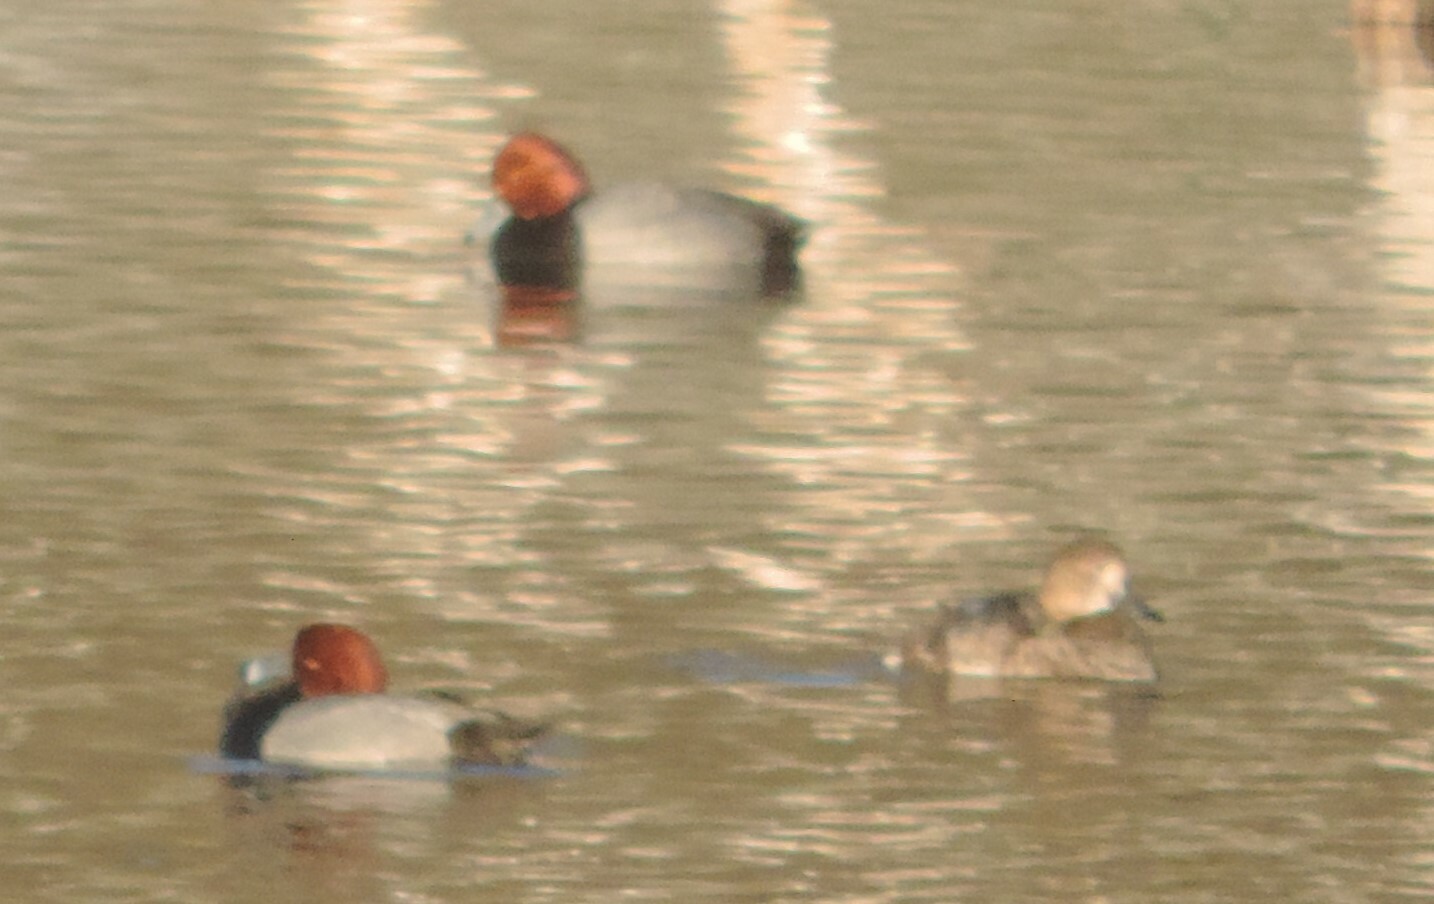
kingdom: Animalia
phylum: Chordata
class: Aves
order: Anseriformes
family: Anatidae
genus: Aythya
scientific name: Aythya americana
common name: Redhead
